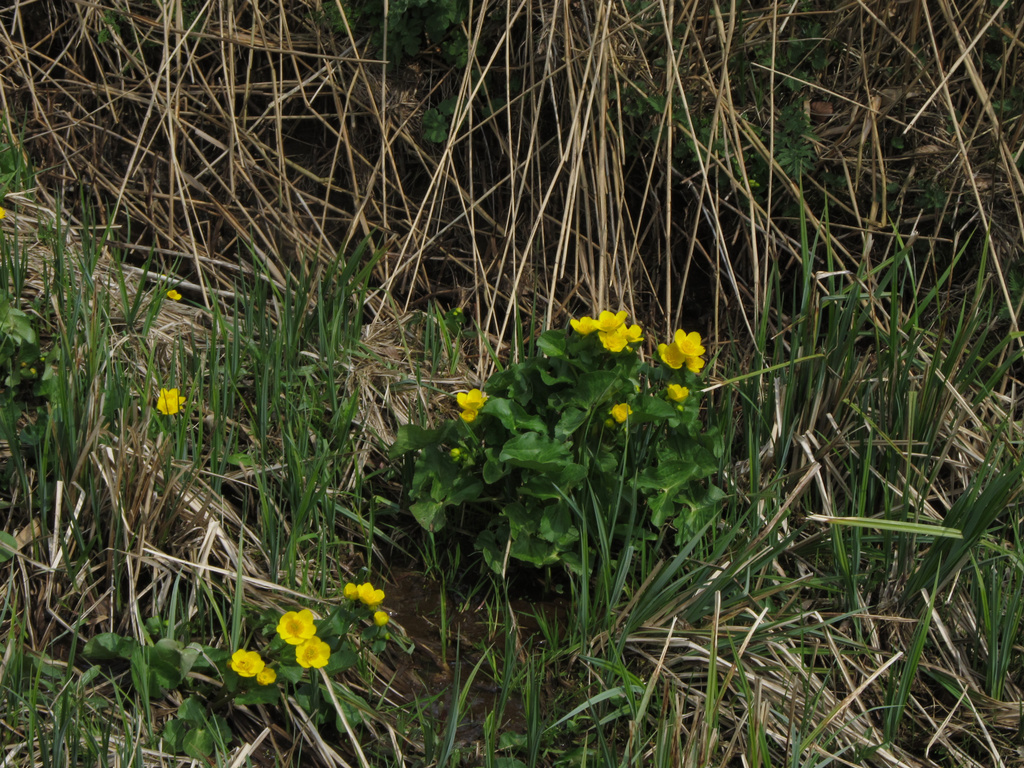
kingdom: Plantae
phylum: Tracheophyta
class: Magnoliopsida
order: Ranunculales
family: Ranunculaceae
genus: Caltha
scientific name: Caltha palustris
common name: Marsh marigold
